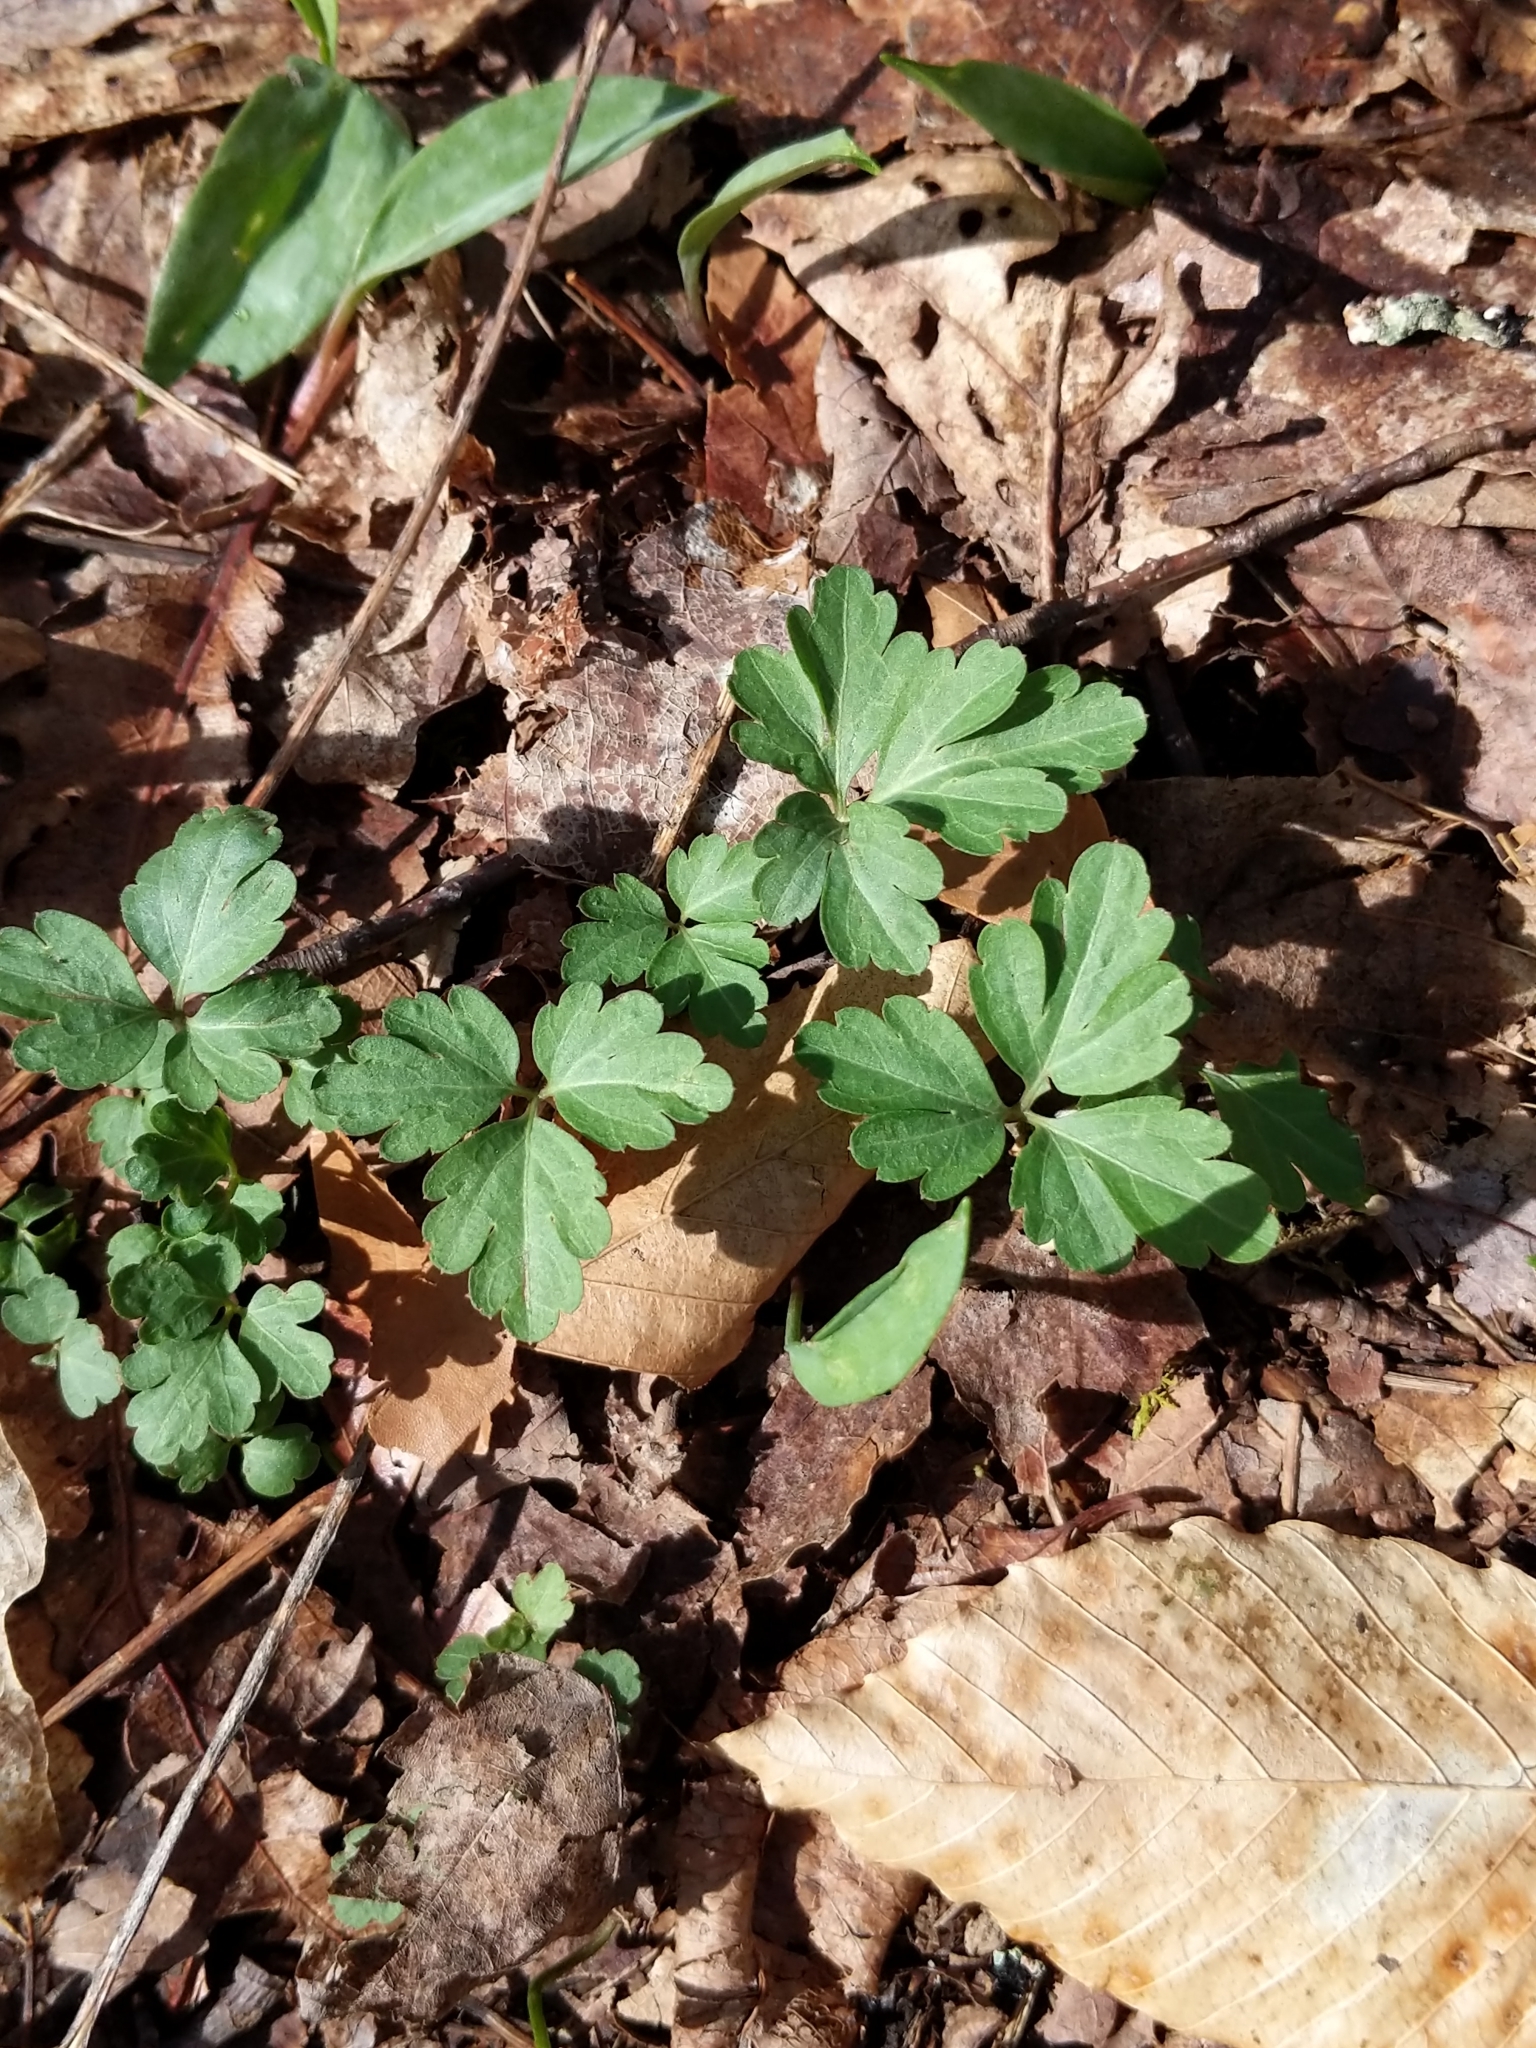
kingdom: Plantae
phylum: Tracheophyta
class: Magnoliopsida
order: Brassicales
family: Brassicaceae
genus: Cardamine
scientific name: Cardamine angustata
